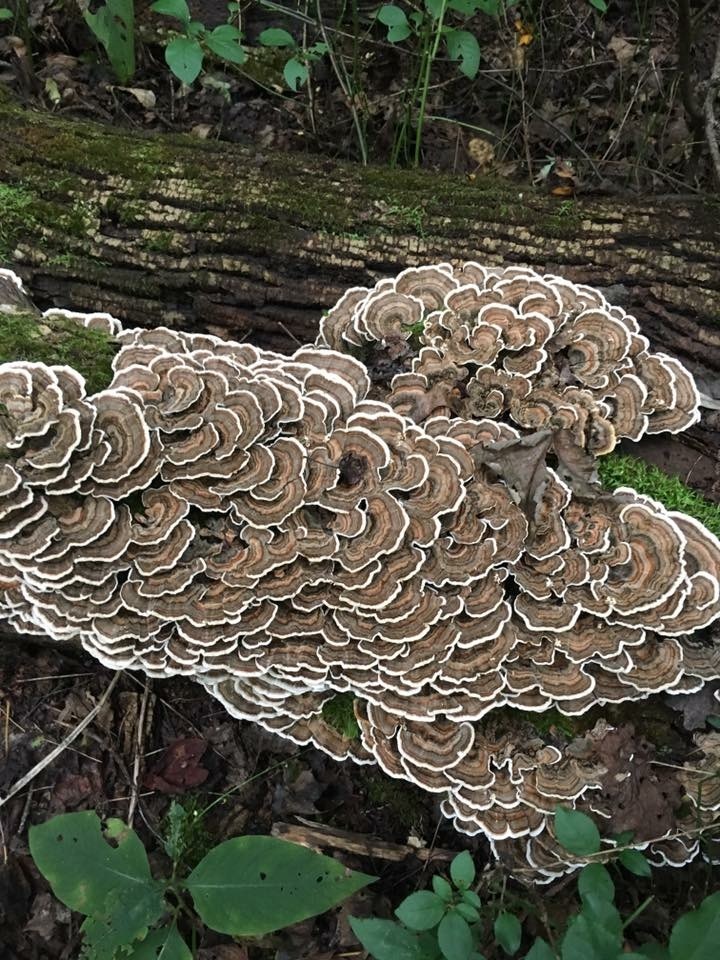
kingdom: Fungi
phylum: Basidiomycota
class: Agaricomycetes
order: Polyporales
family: Polyporaceae
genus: Trametes
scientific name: Trametes versicolor
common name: Turkeytail
